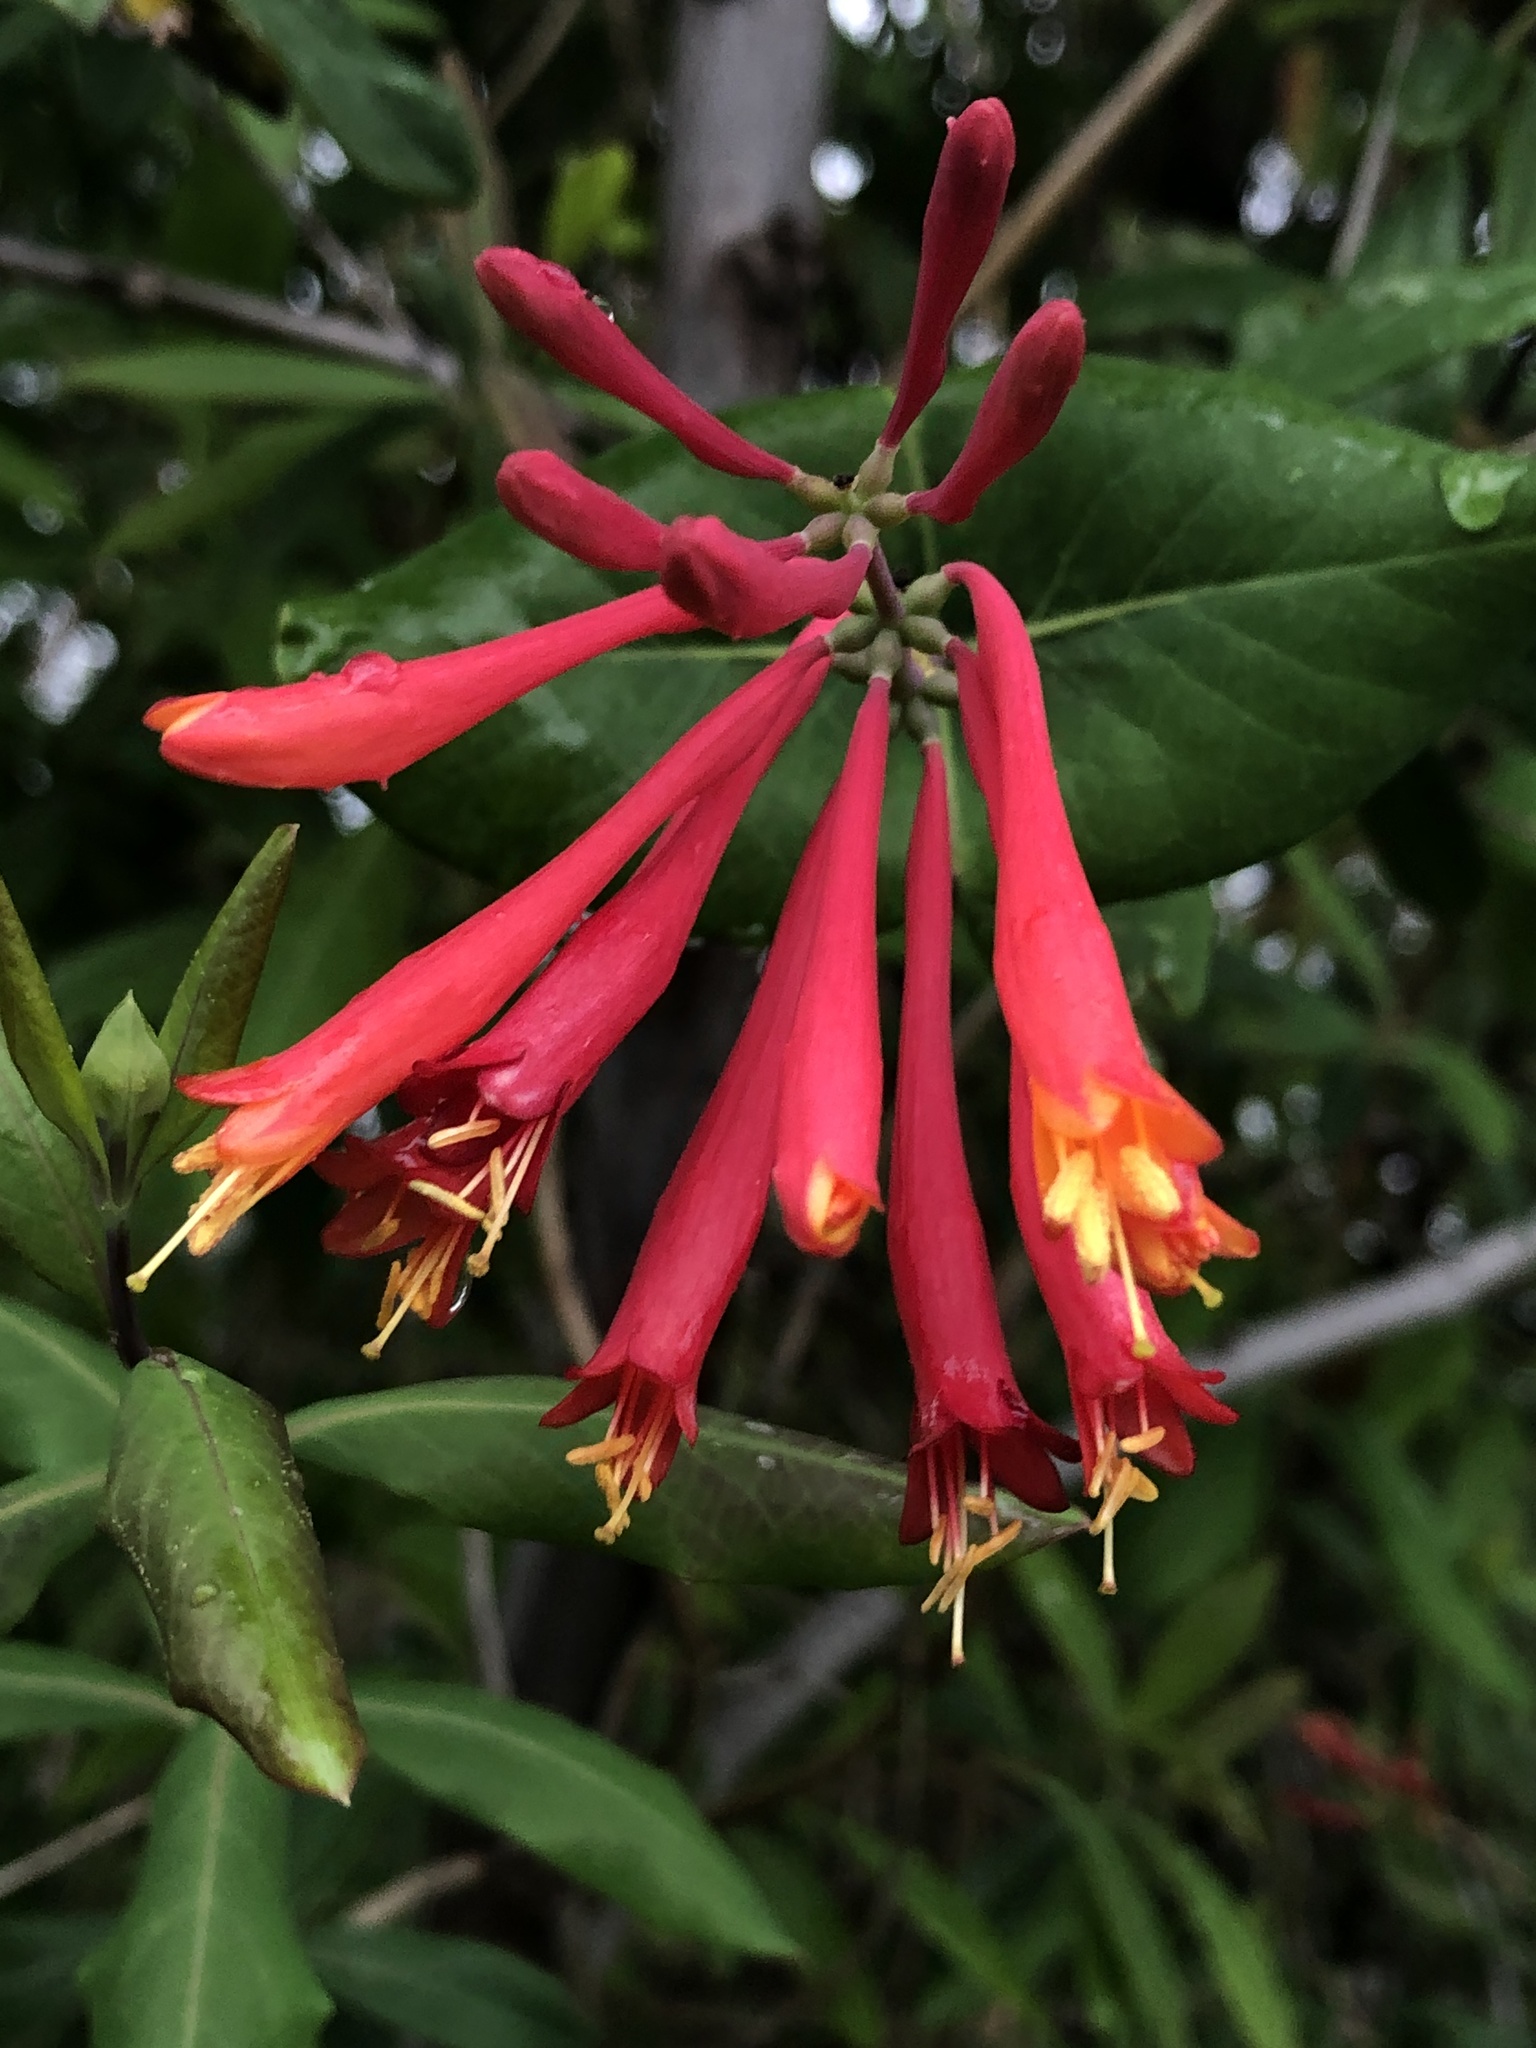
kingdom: Plantae
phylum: Tracheophyta
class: Magnoliopsida
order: Dipsacales
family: Caprifoliaceae
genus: Lonicera
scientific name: Lonicera sempervirens
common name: Coral honeysuckle
